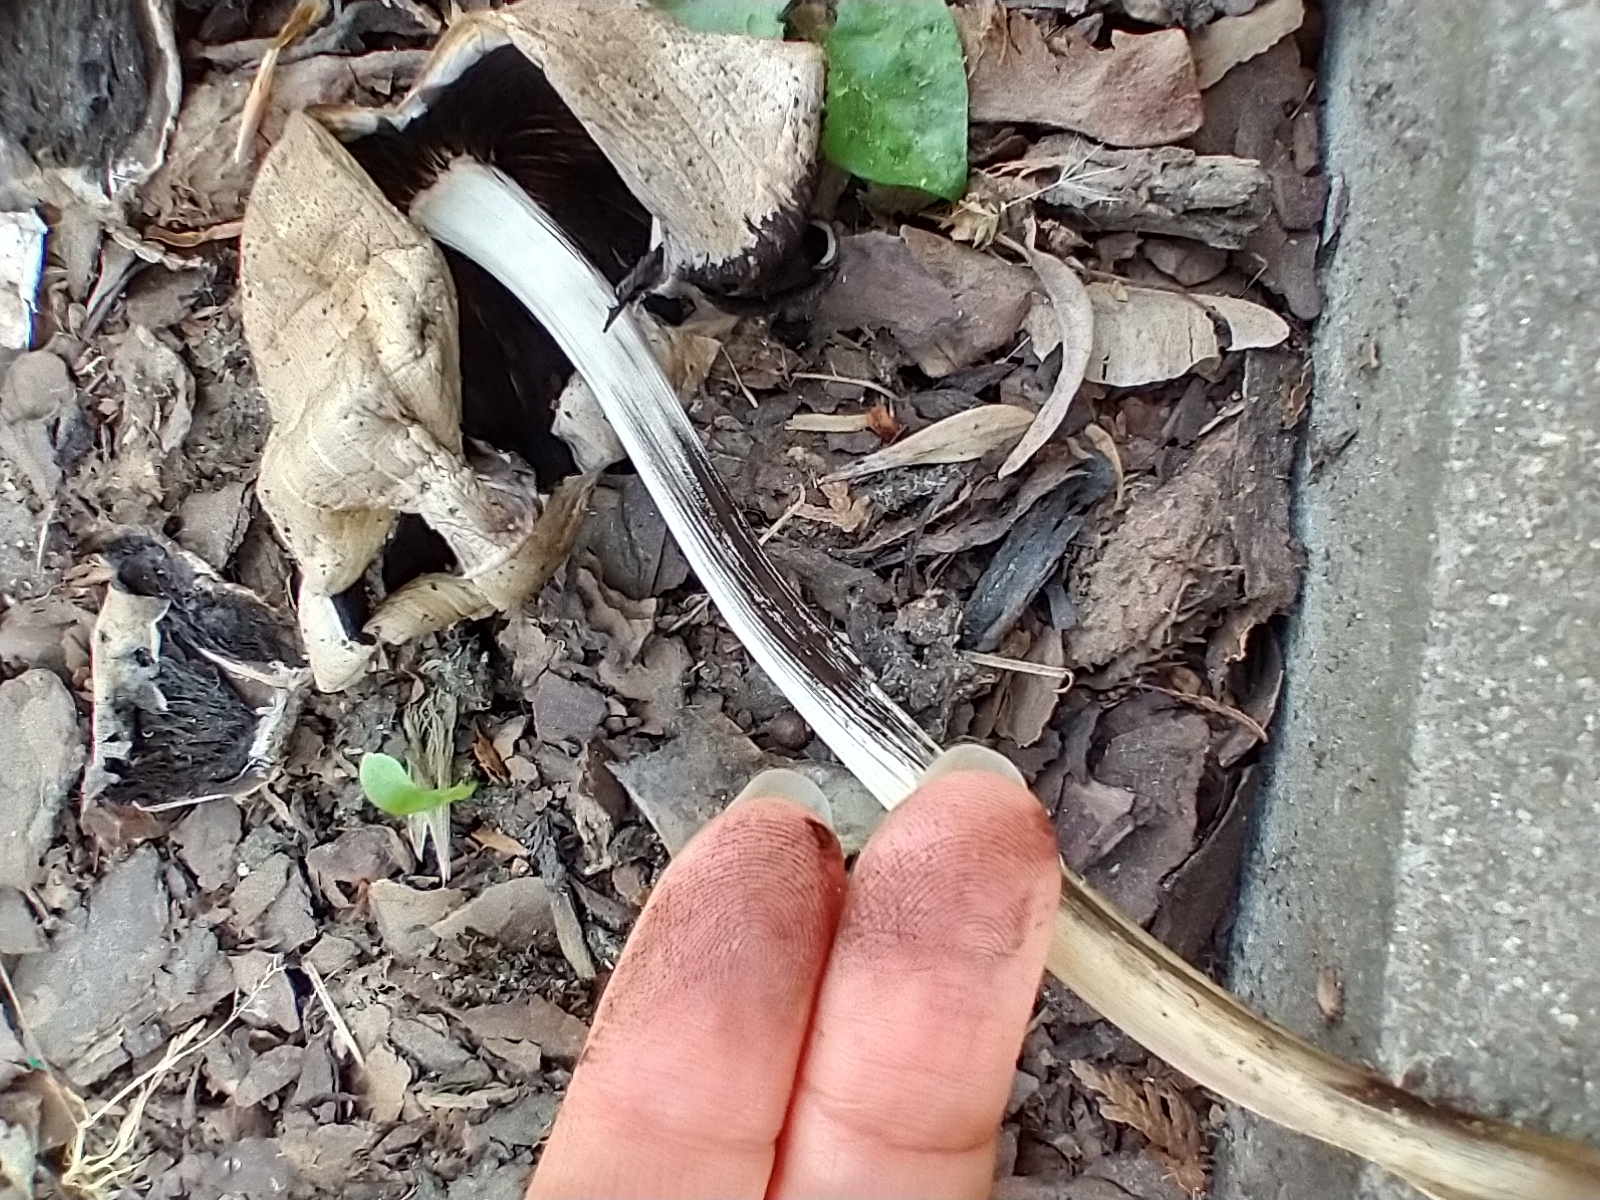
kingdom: Fungi
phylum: Basidiomycota
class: Agaricomycetes
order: Agaricales
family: Psathyrellaceae
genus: Coprinopsis
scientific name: Coprinopsis atramentaria
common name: Common ink-cap
